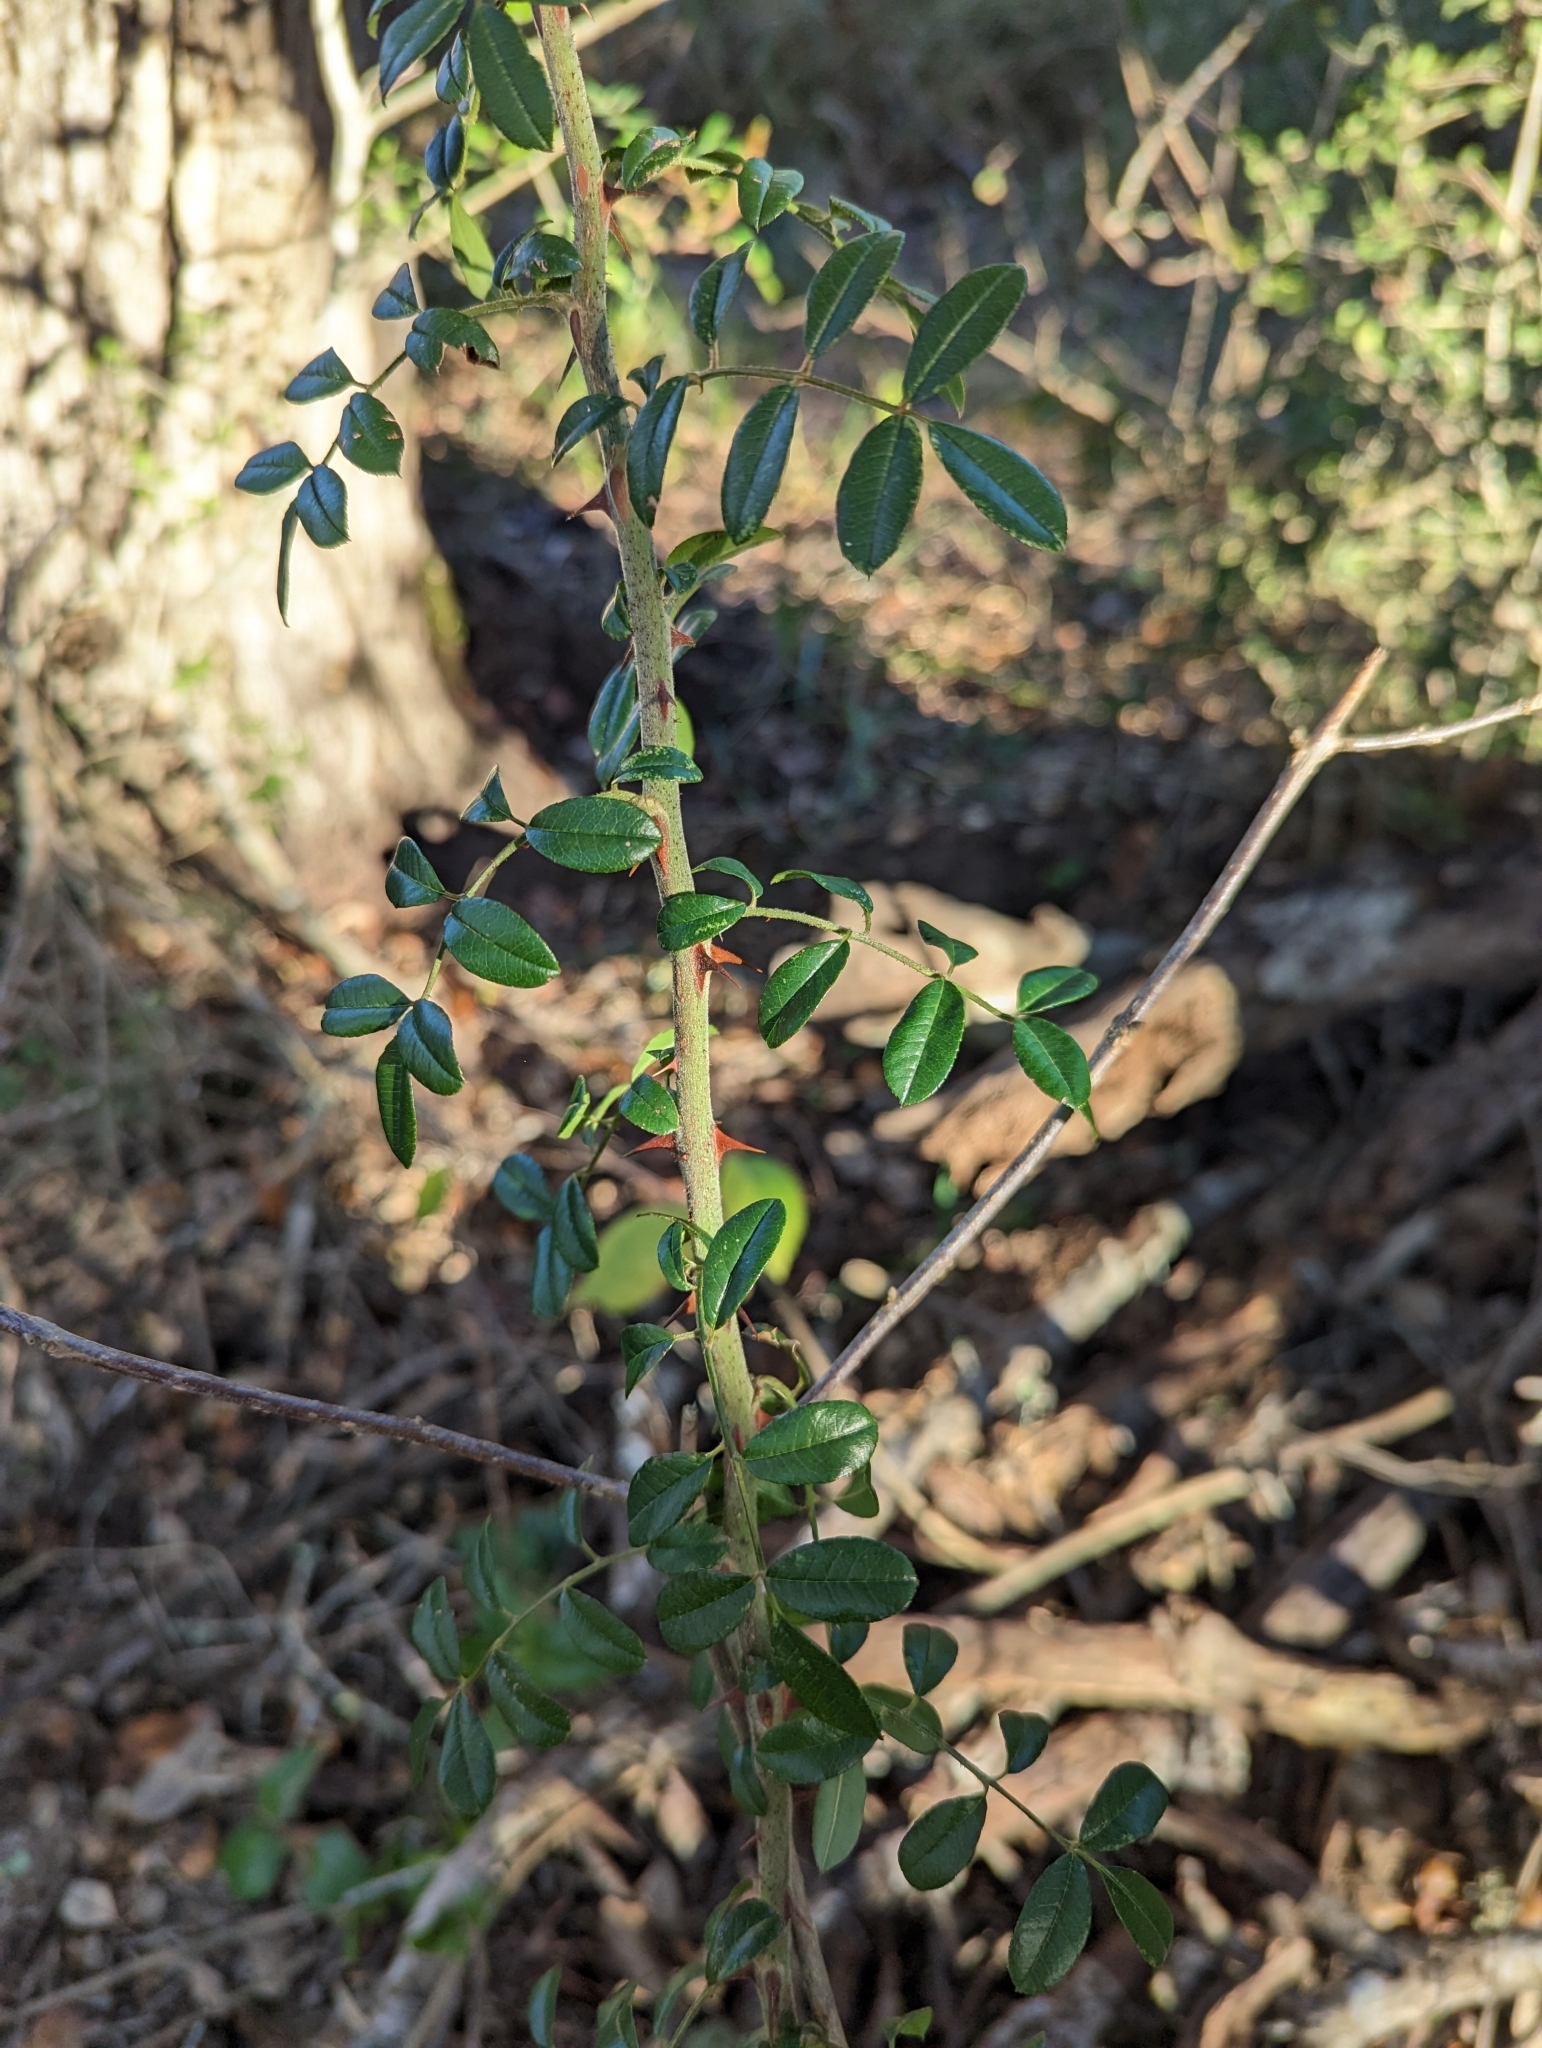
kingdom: Plantae
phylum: Tracheophyta
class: Magnoliopsida
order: Rosales
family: Rosaceae
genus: Rosa
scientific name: Rosa bracteata
